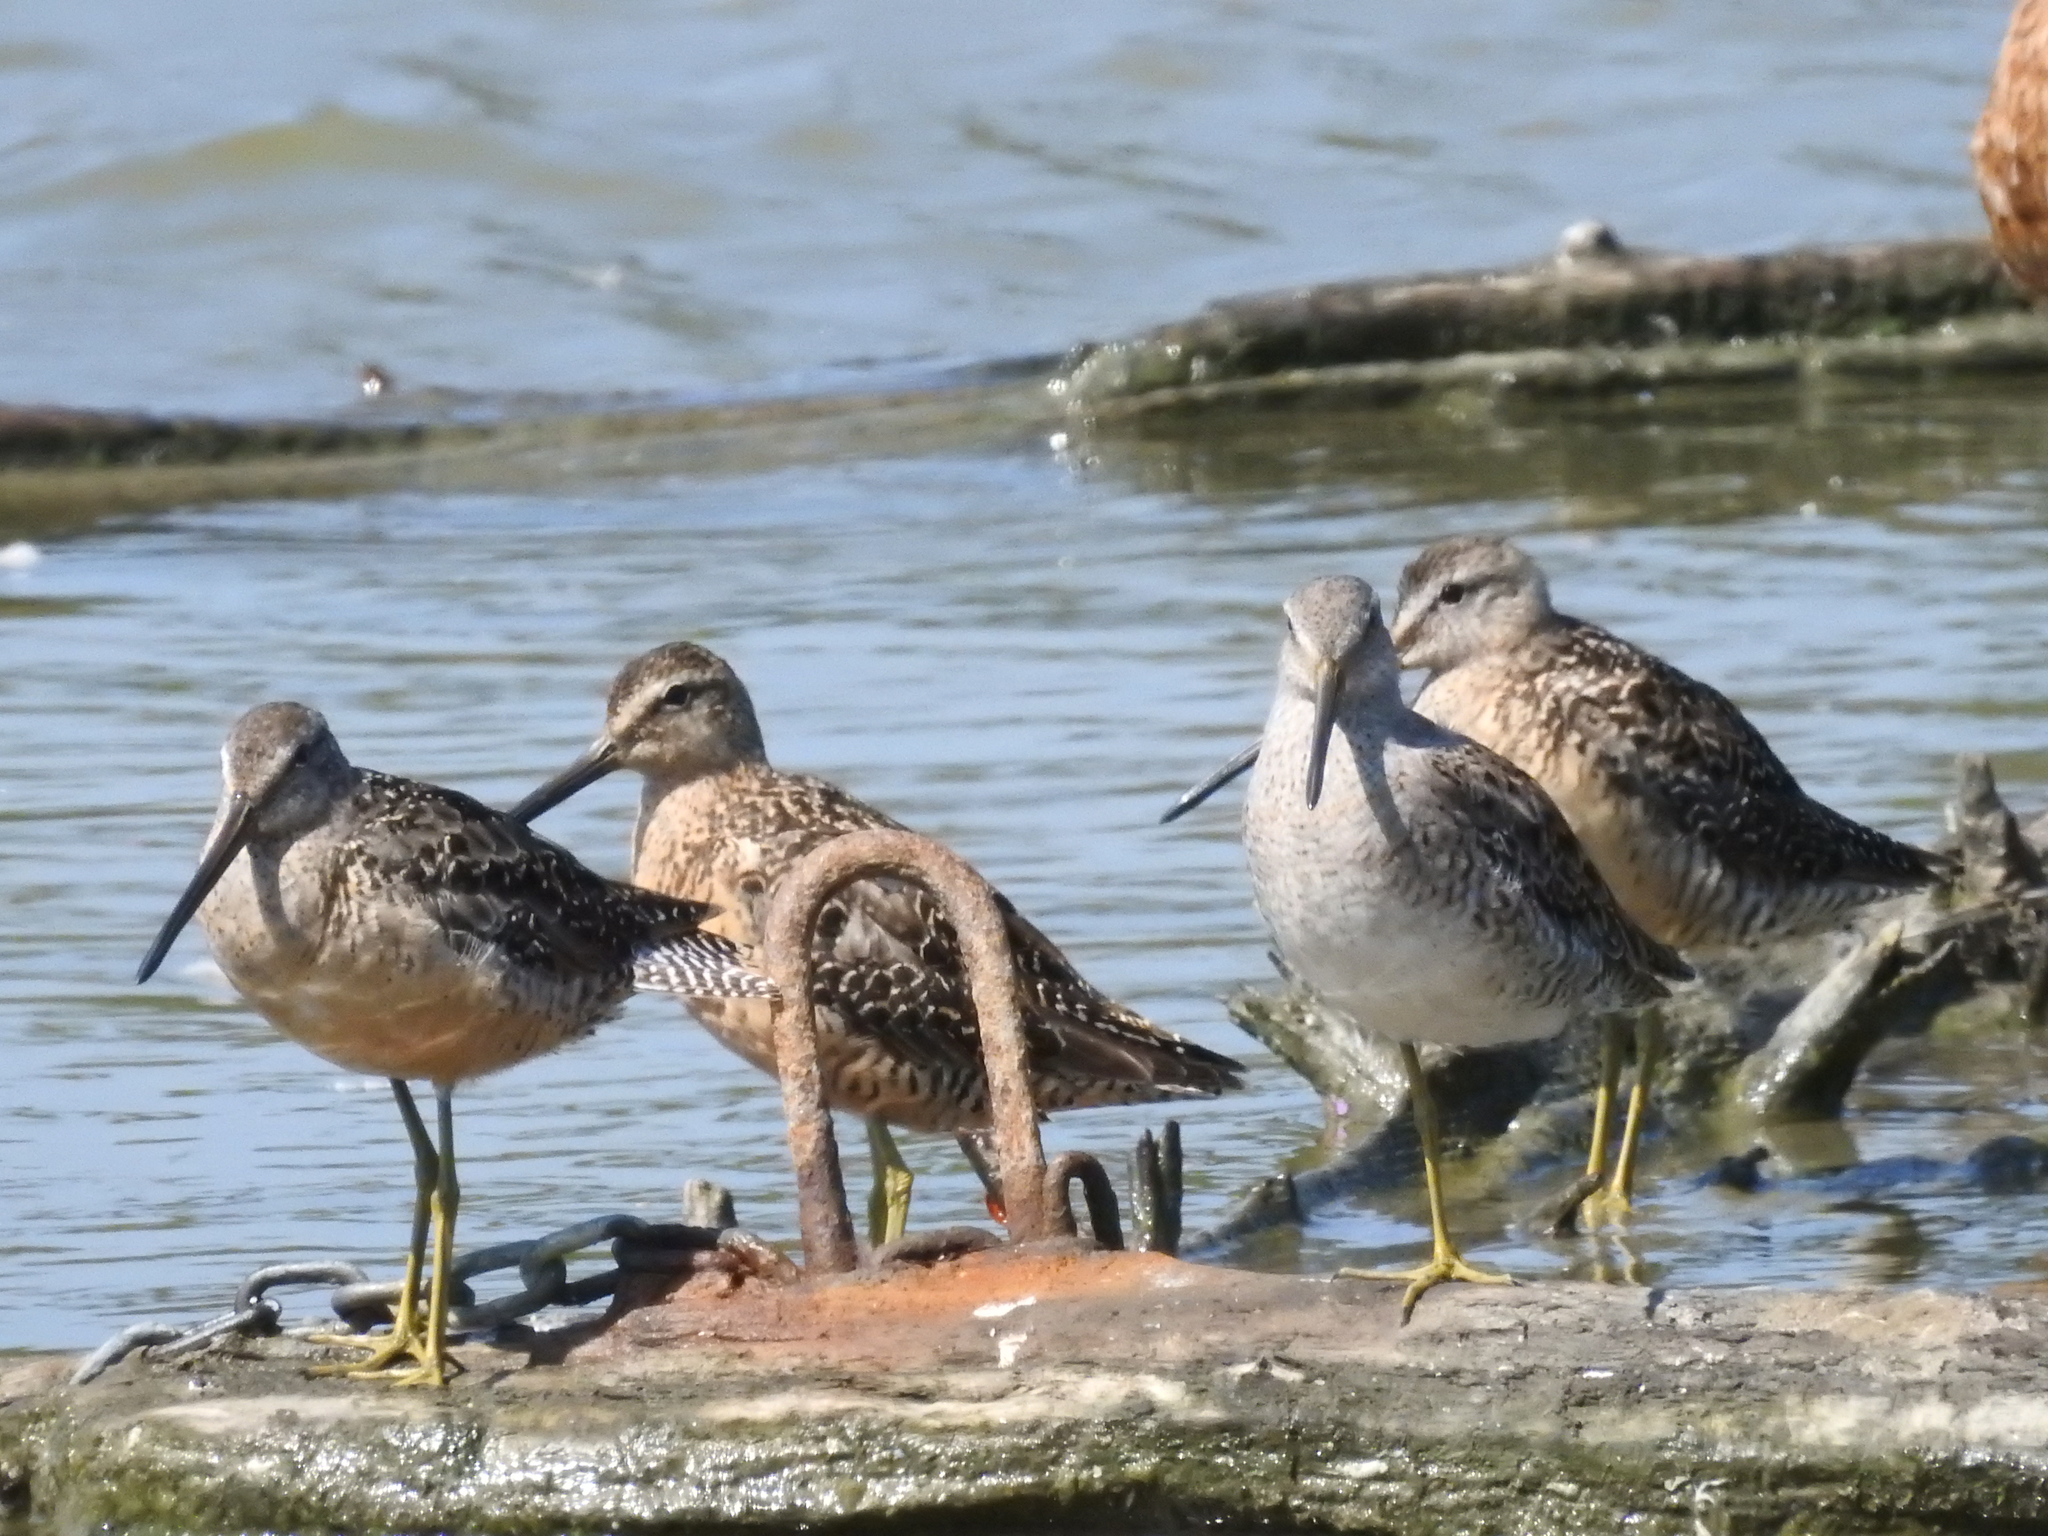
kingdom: Animalia
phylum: Chordata
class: Aves
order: Charadriiformes
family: Scolopacidae
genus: Limnodromus
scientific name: Limnodromus
